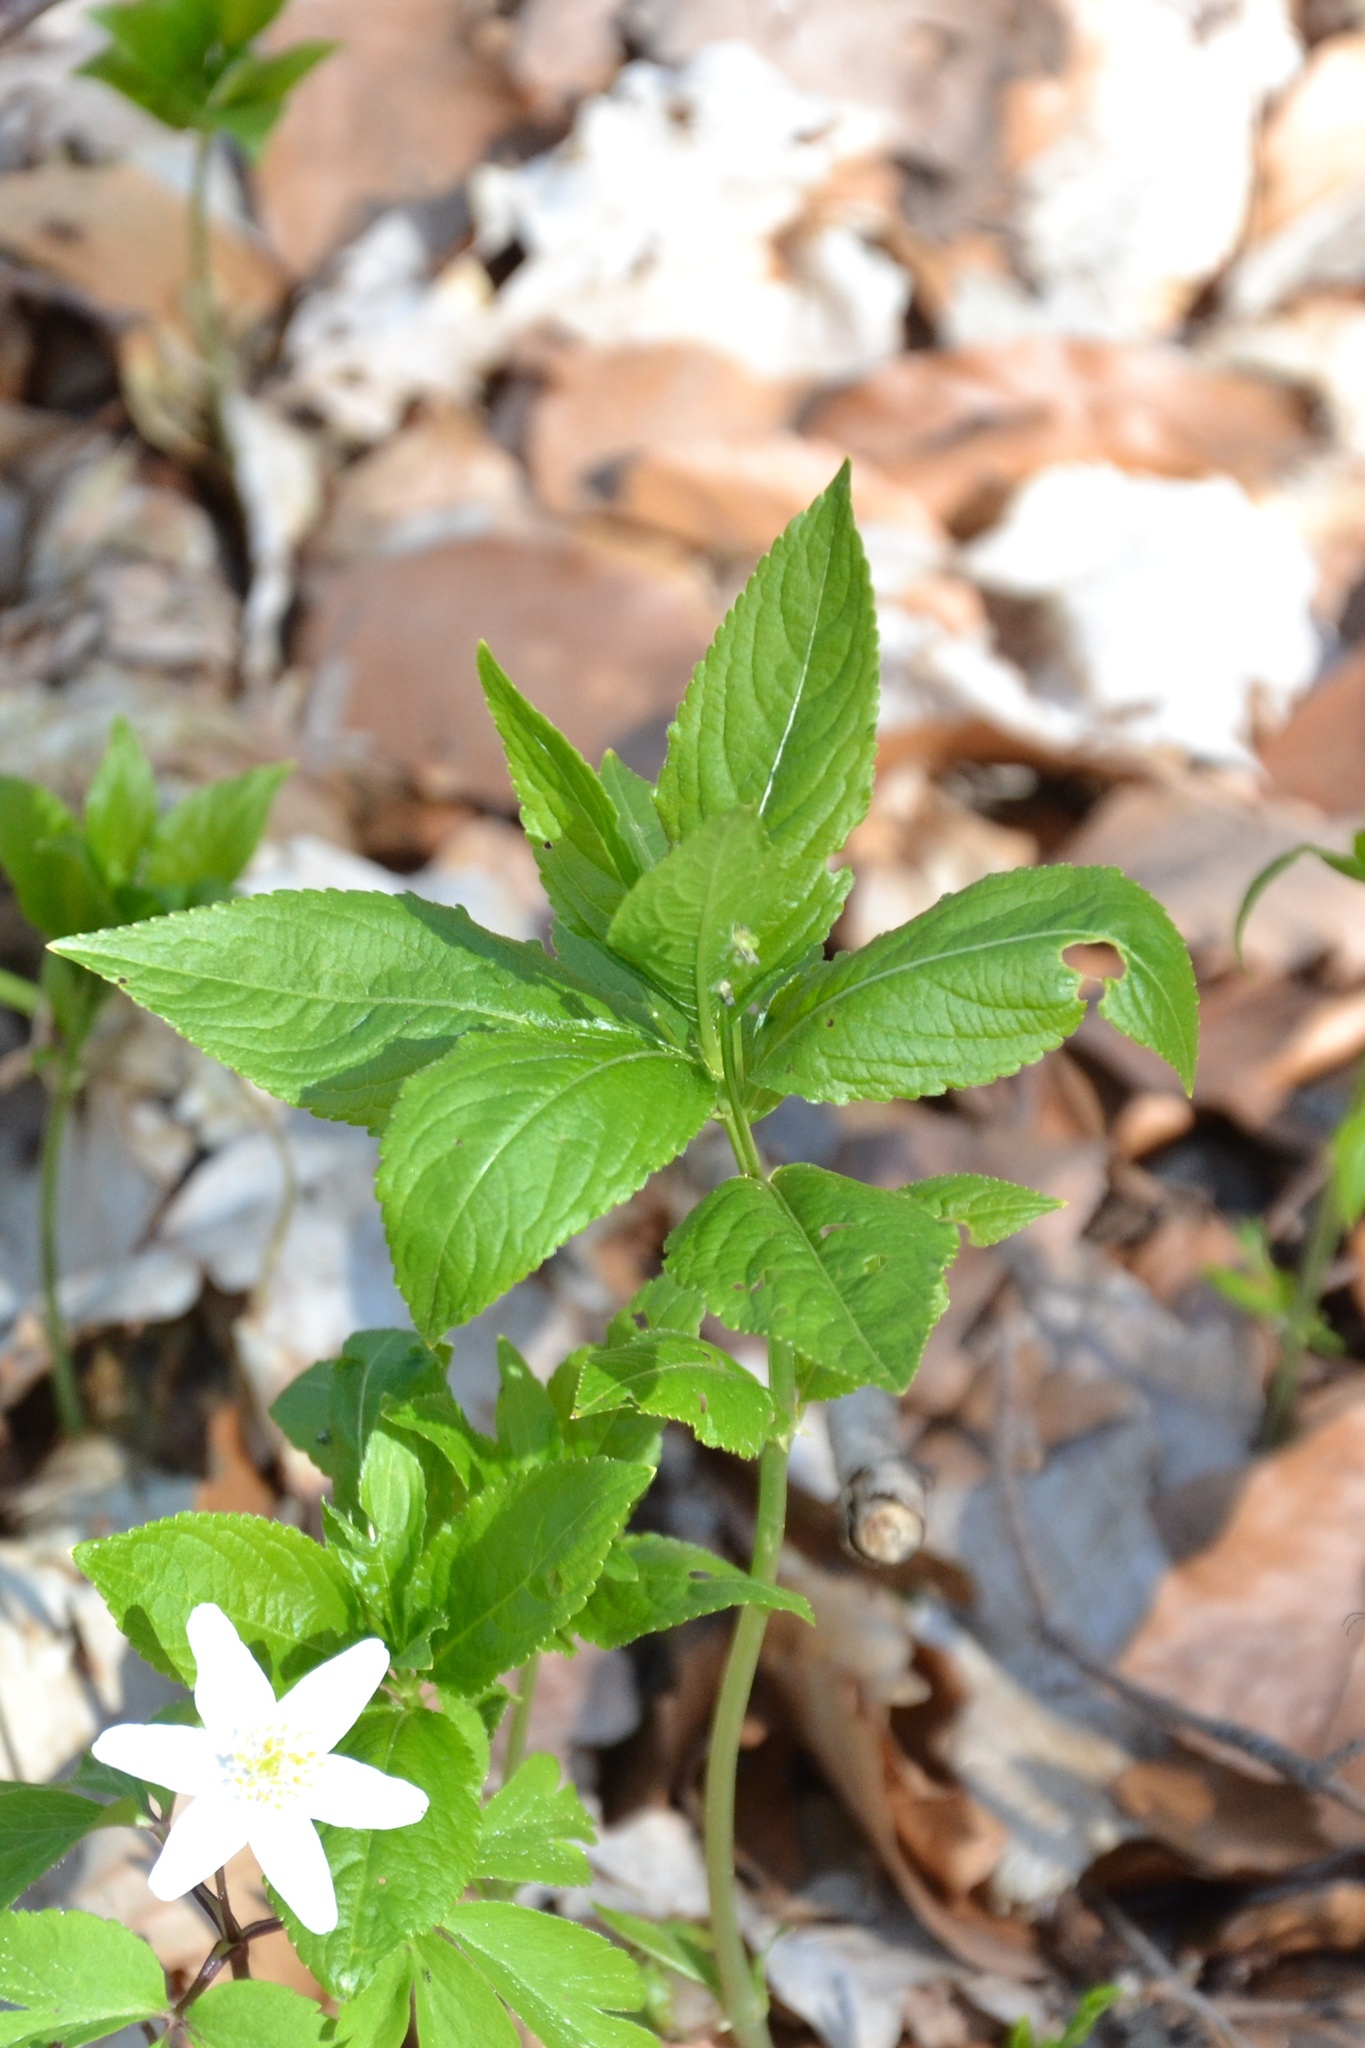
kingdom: Plantae
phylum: Tracheophyta
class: Magnoliopsida
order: Malpighiales
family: Euphorbiaceae
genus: Mercurialis
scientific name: Mercurialis perennis
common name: Dog mercury
